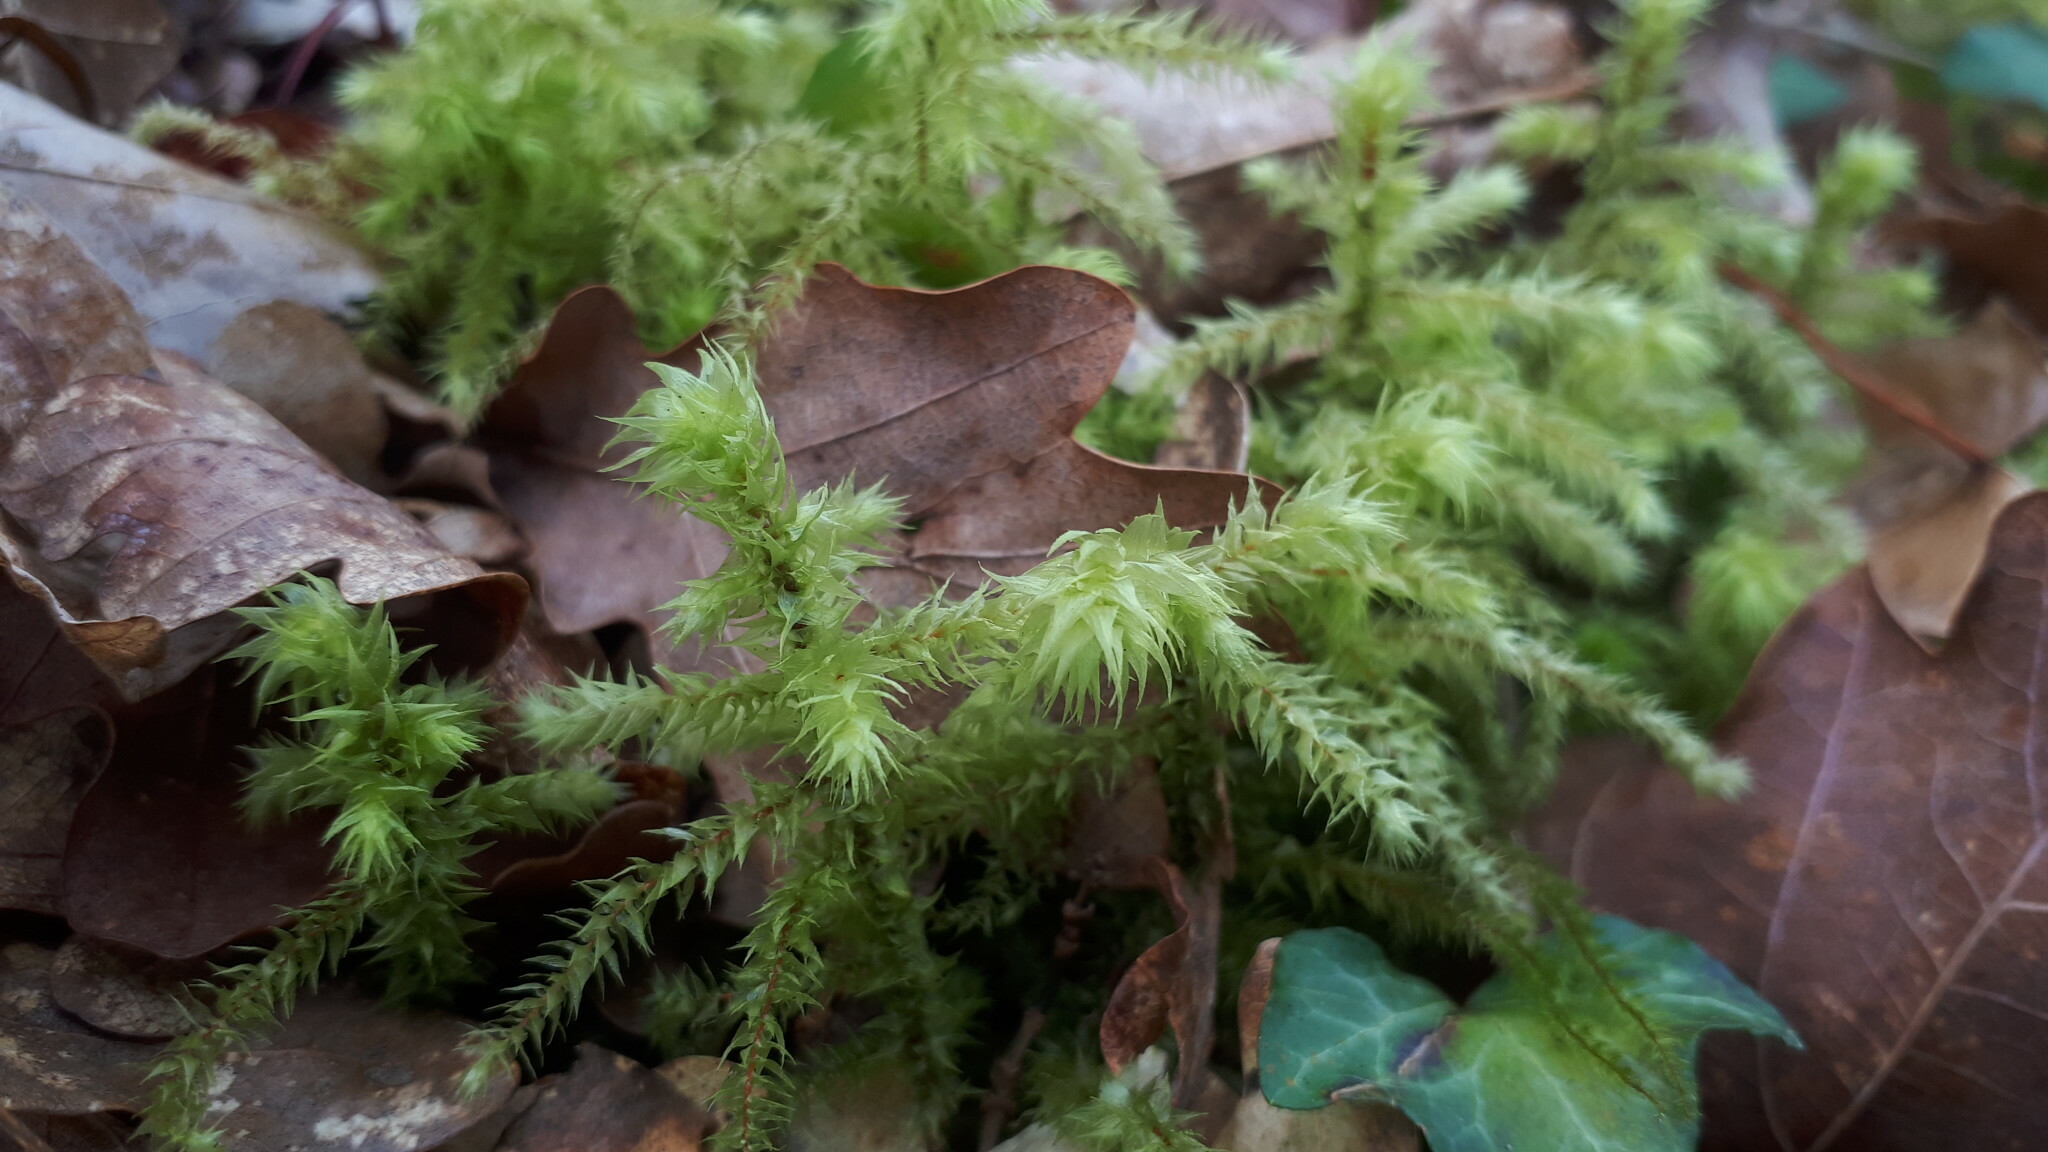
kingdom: Plantae
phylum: Bryophyta
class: Bryopsida
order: Hypnales
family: Hylocomiaceae
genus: Hylocomiadelphus
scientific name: Hylocomiadelphus triquetrus
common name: Rough goose neck moss
